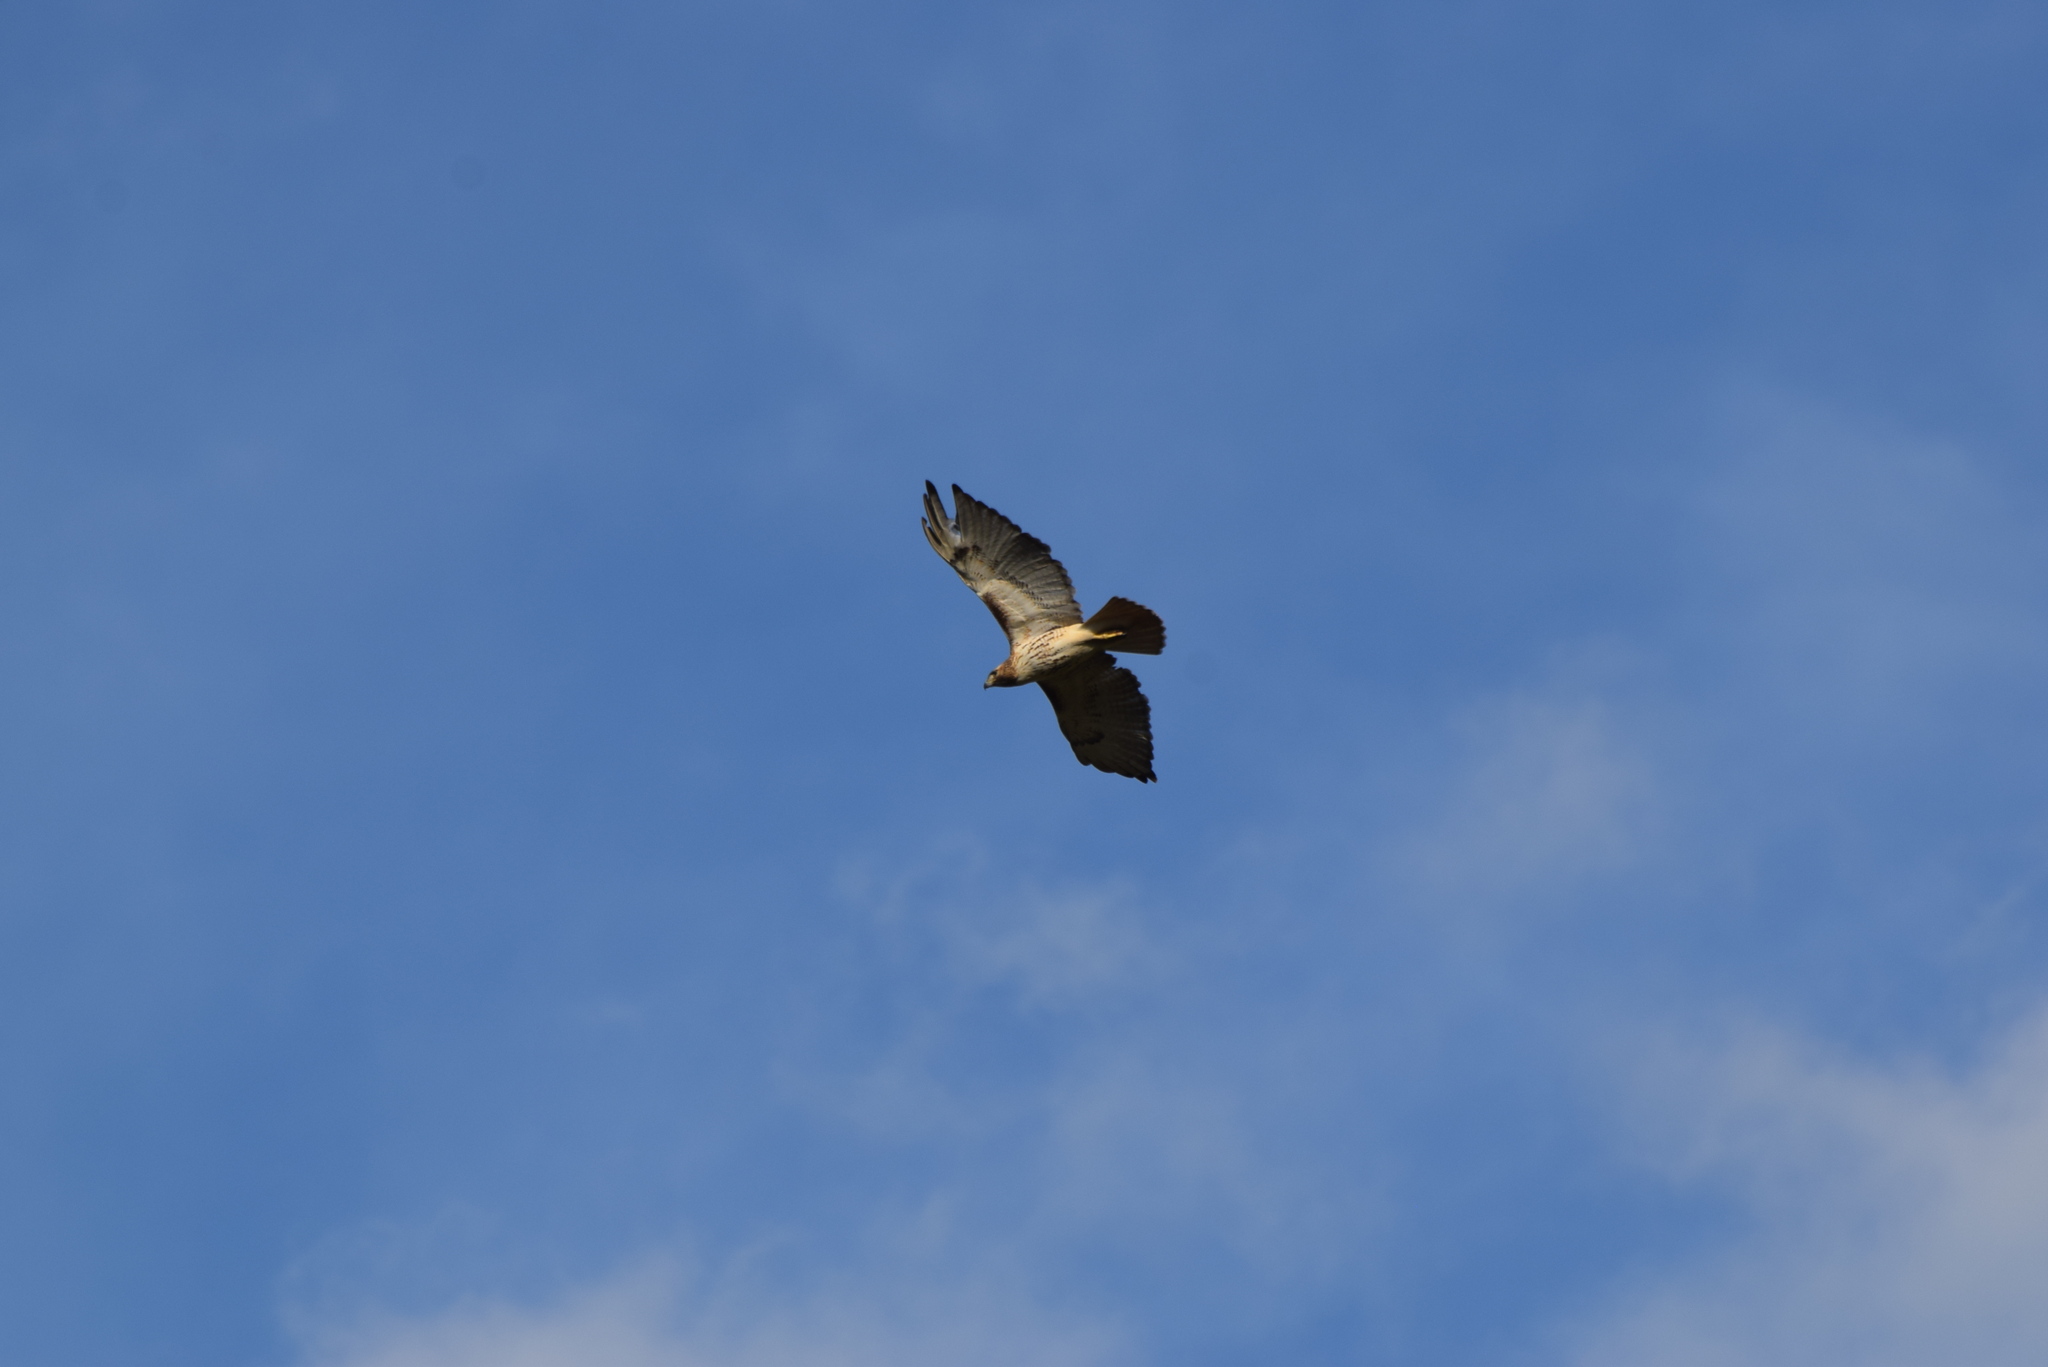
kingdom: Animalia
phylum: Chordata
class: Aves
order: Accipitriformes
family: Accipitridae
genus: Buteo
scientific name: Buteo jamaicensis
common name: Red-tailed hawk
